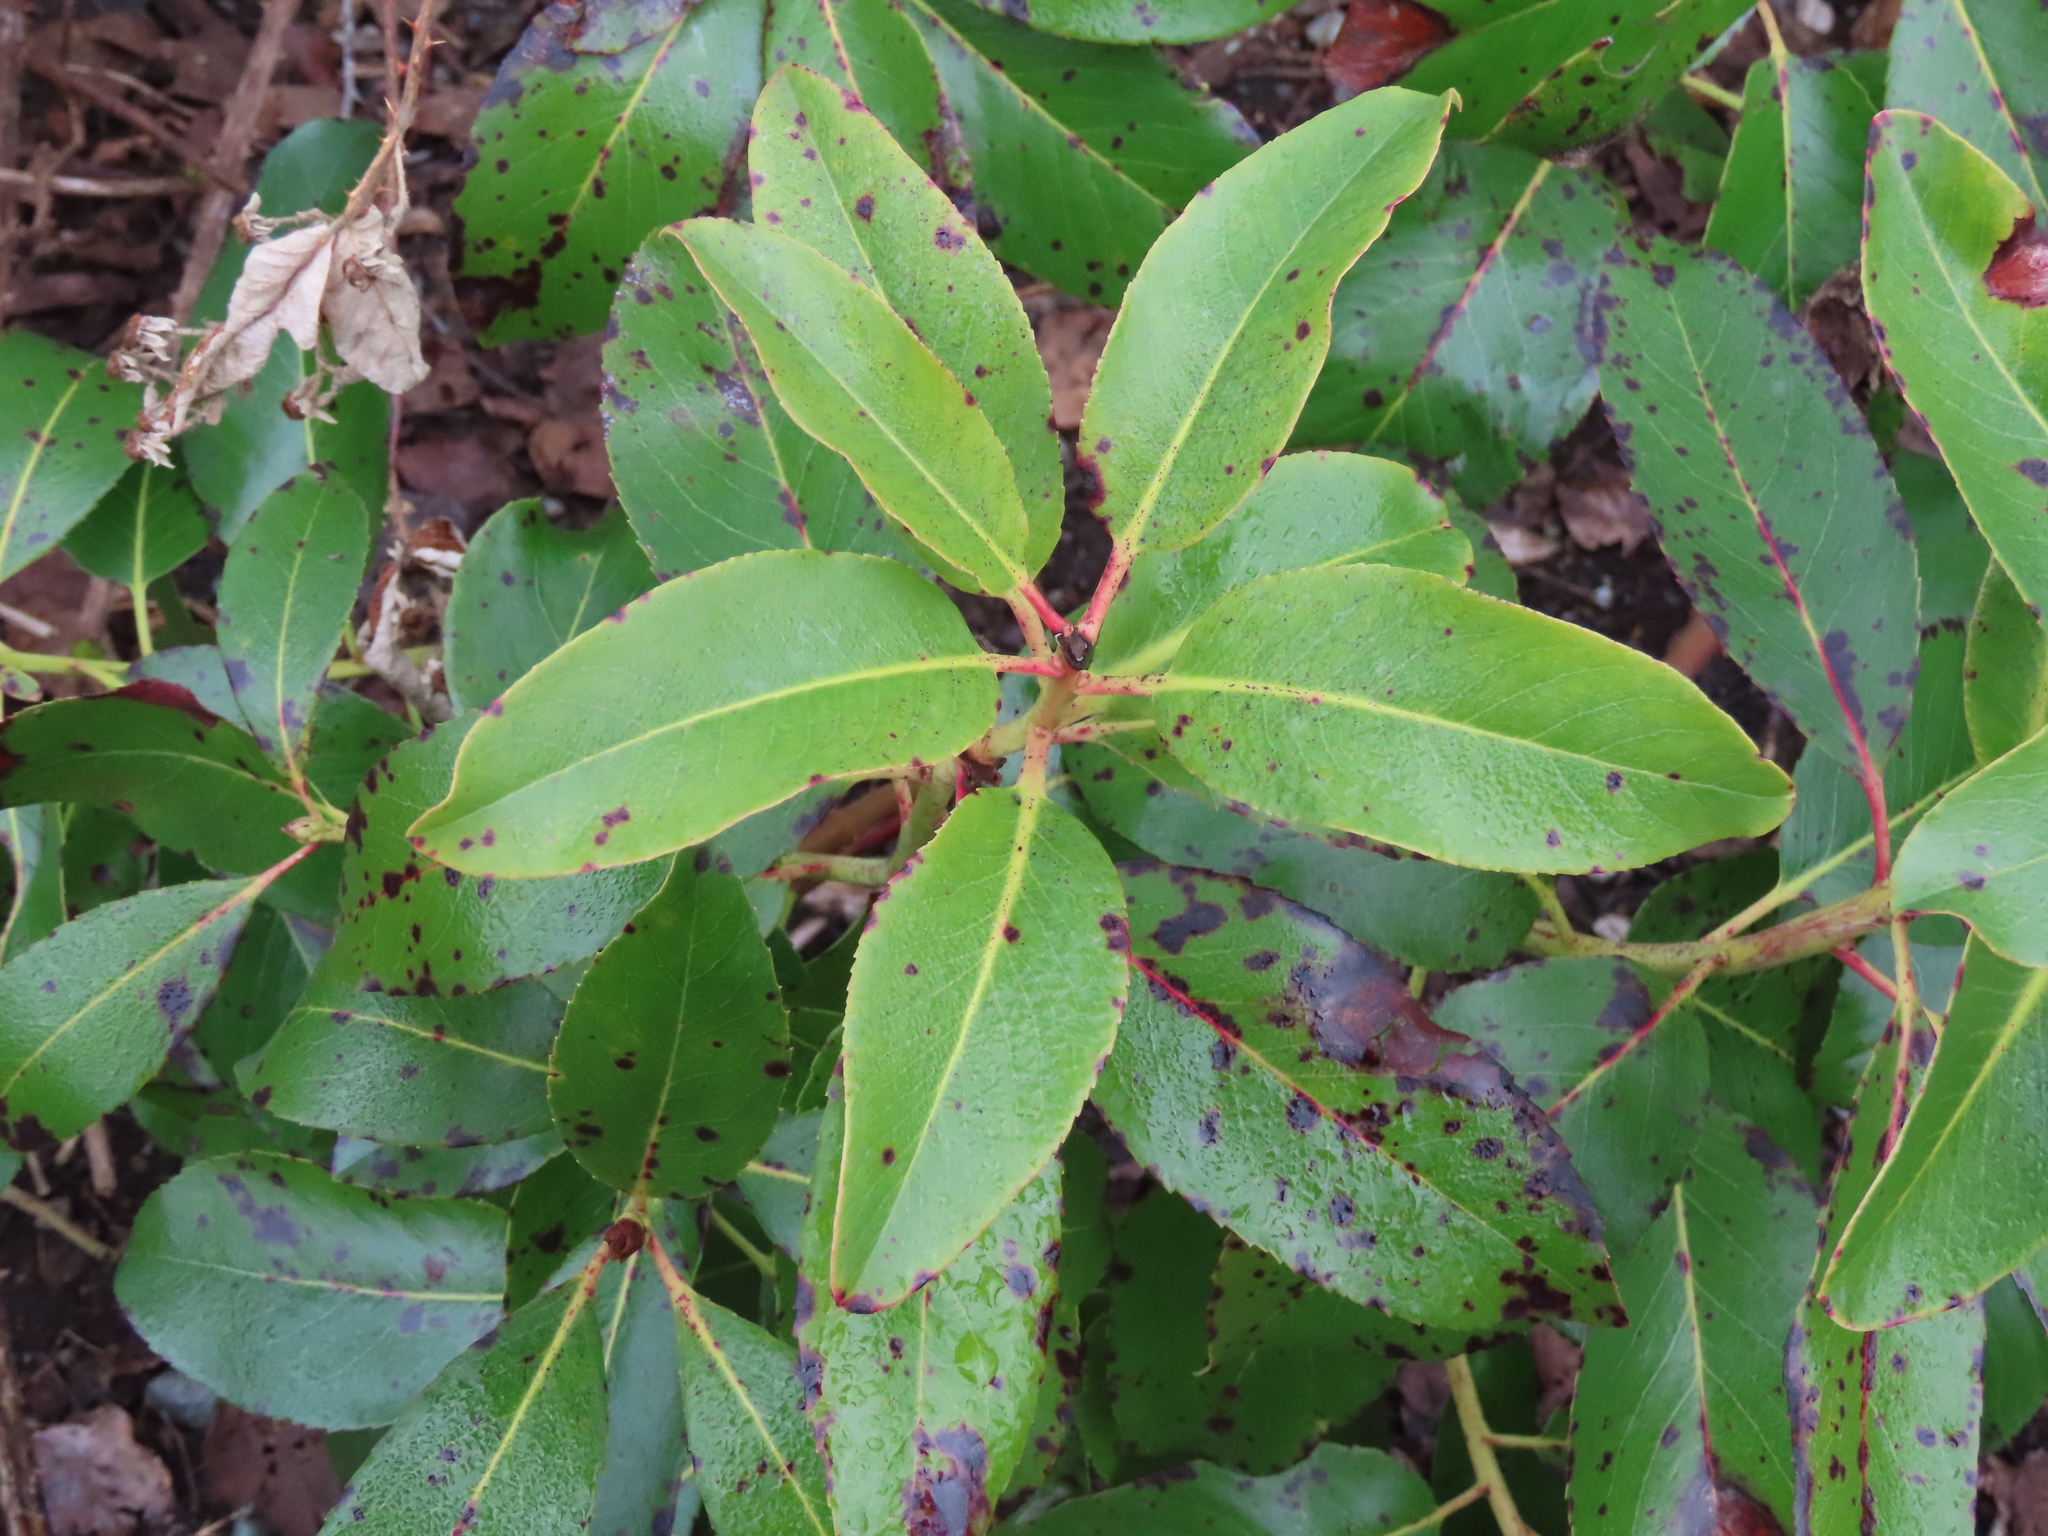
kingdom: Plantae
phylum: Tracheophyta
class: Magnoliopsida
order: Ericales
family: Ericaceae
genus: Arbutus
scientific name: Arbutus menziesii
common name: Pacific madrone
